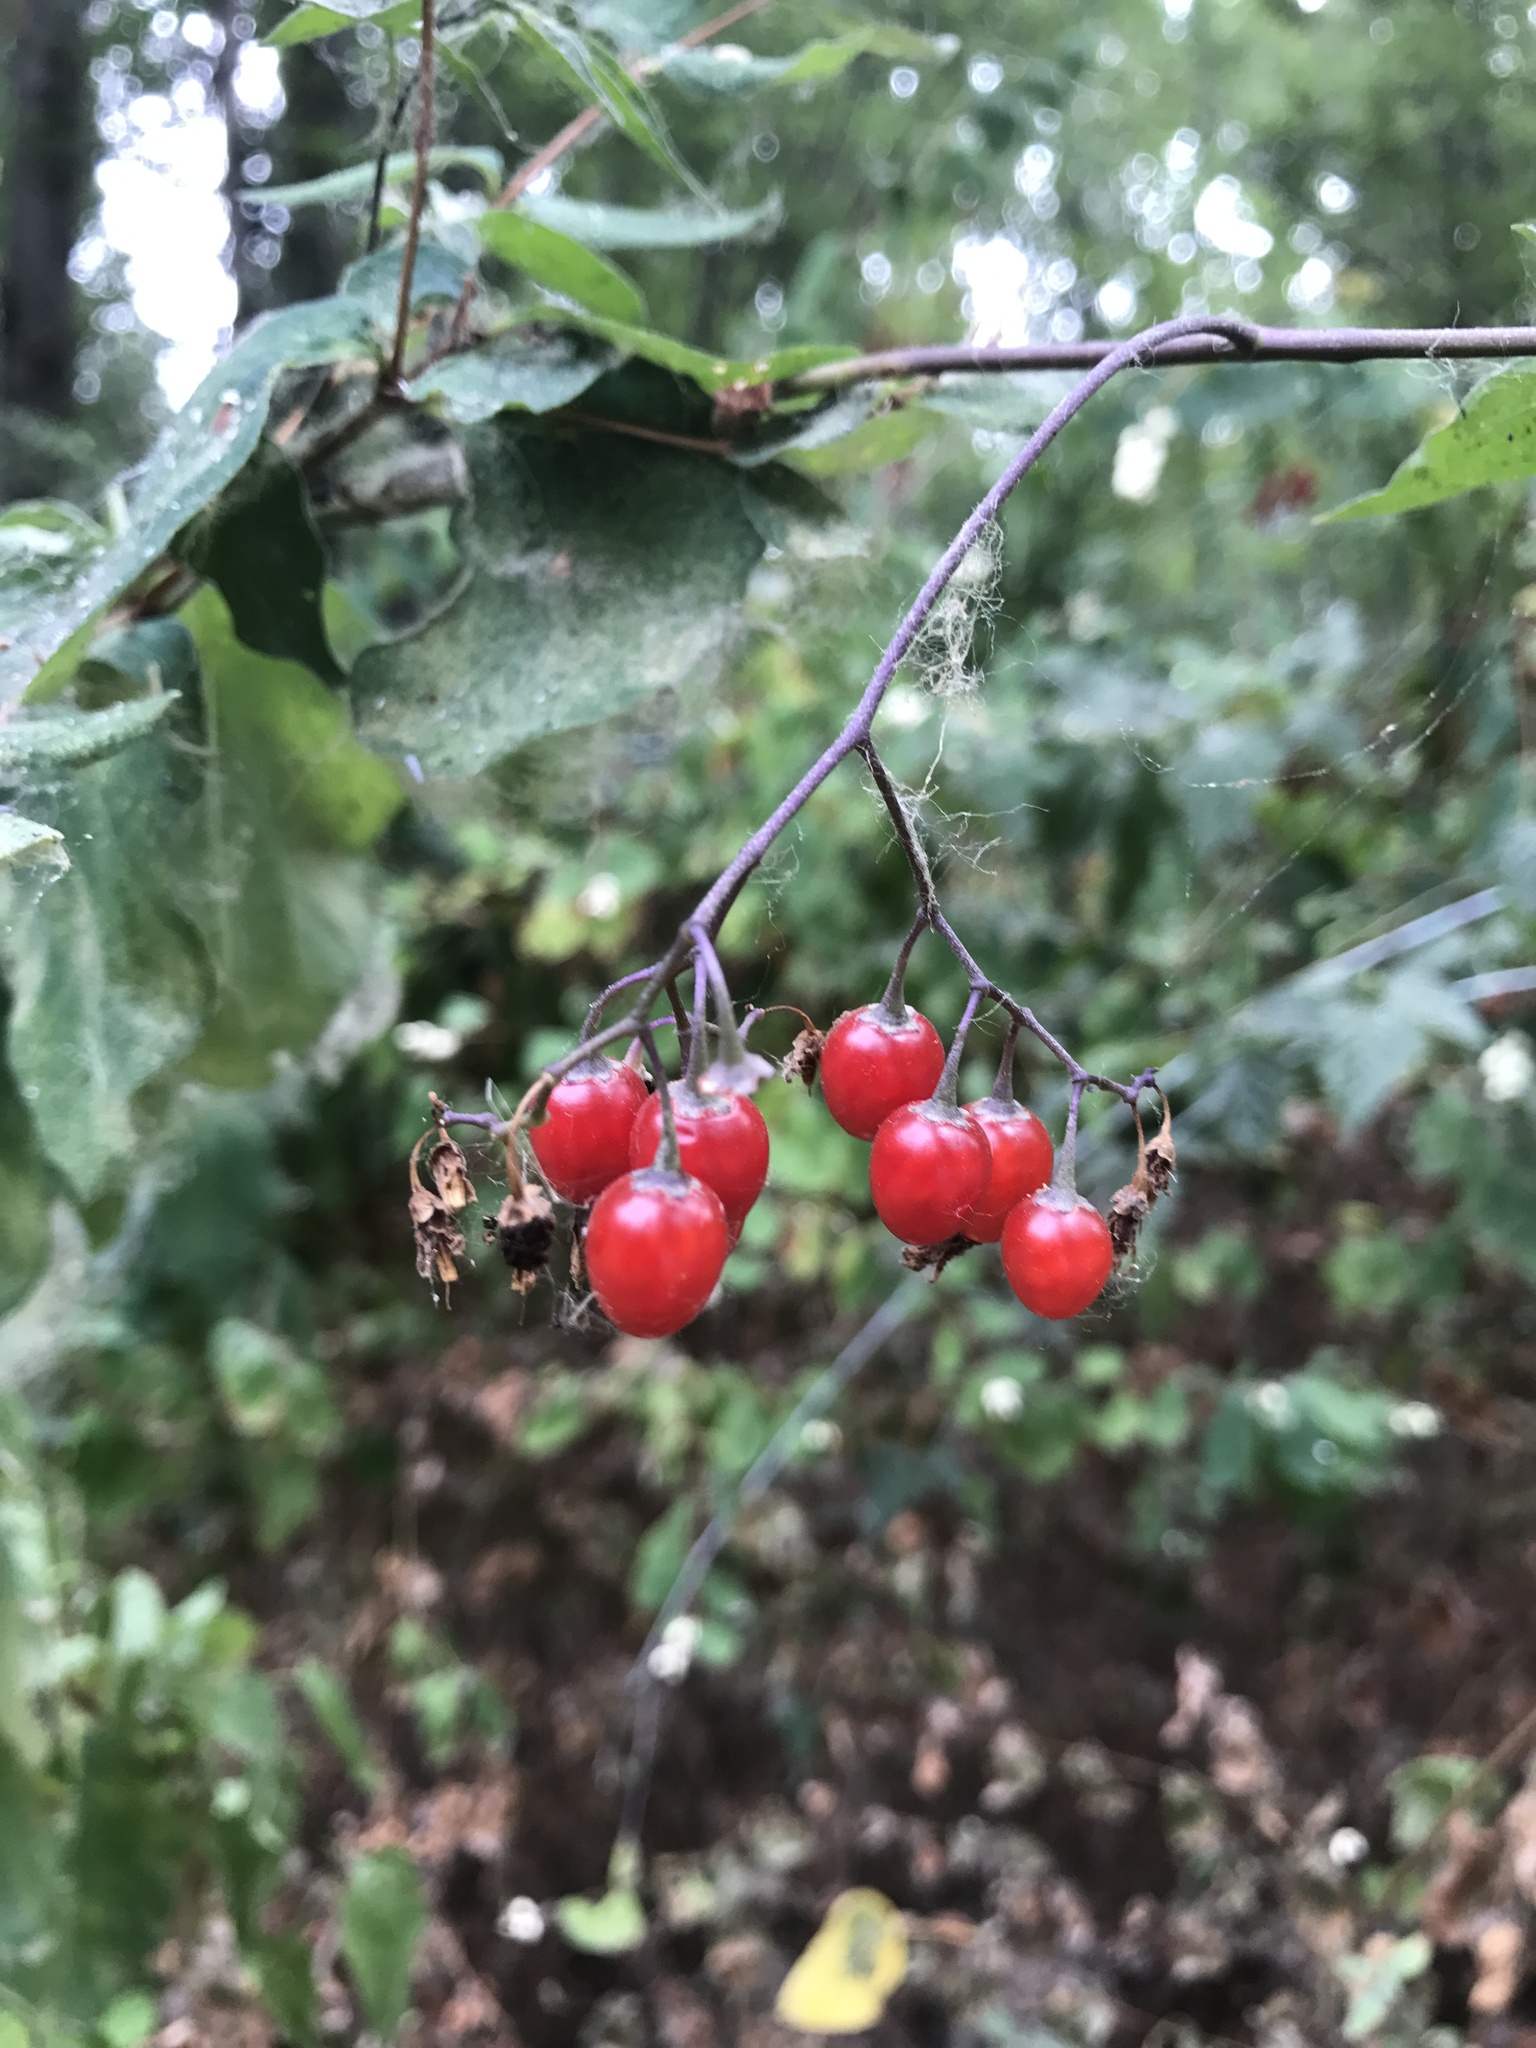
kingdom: Plantae
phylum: Tracheophyta
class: Magnoliopsida
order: Solanales
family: Solanaceae
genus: Solanum
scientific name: Solanum dulcamara
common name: Climbing nightshade
